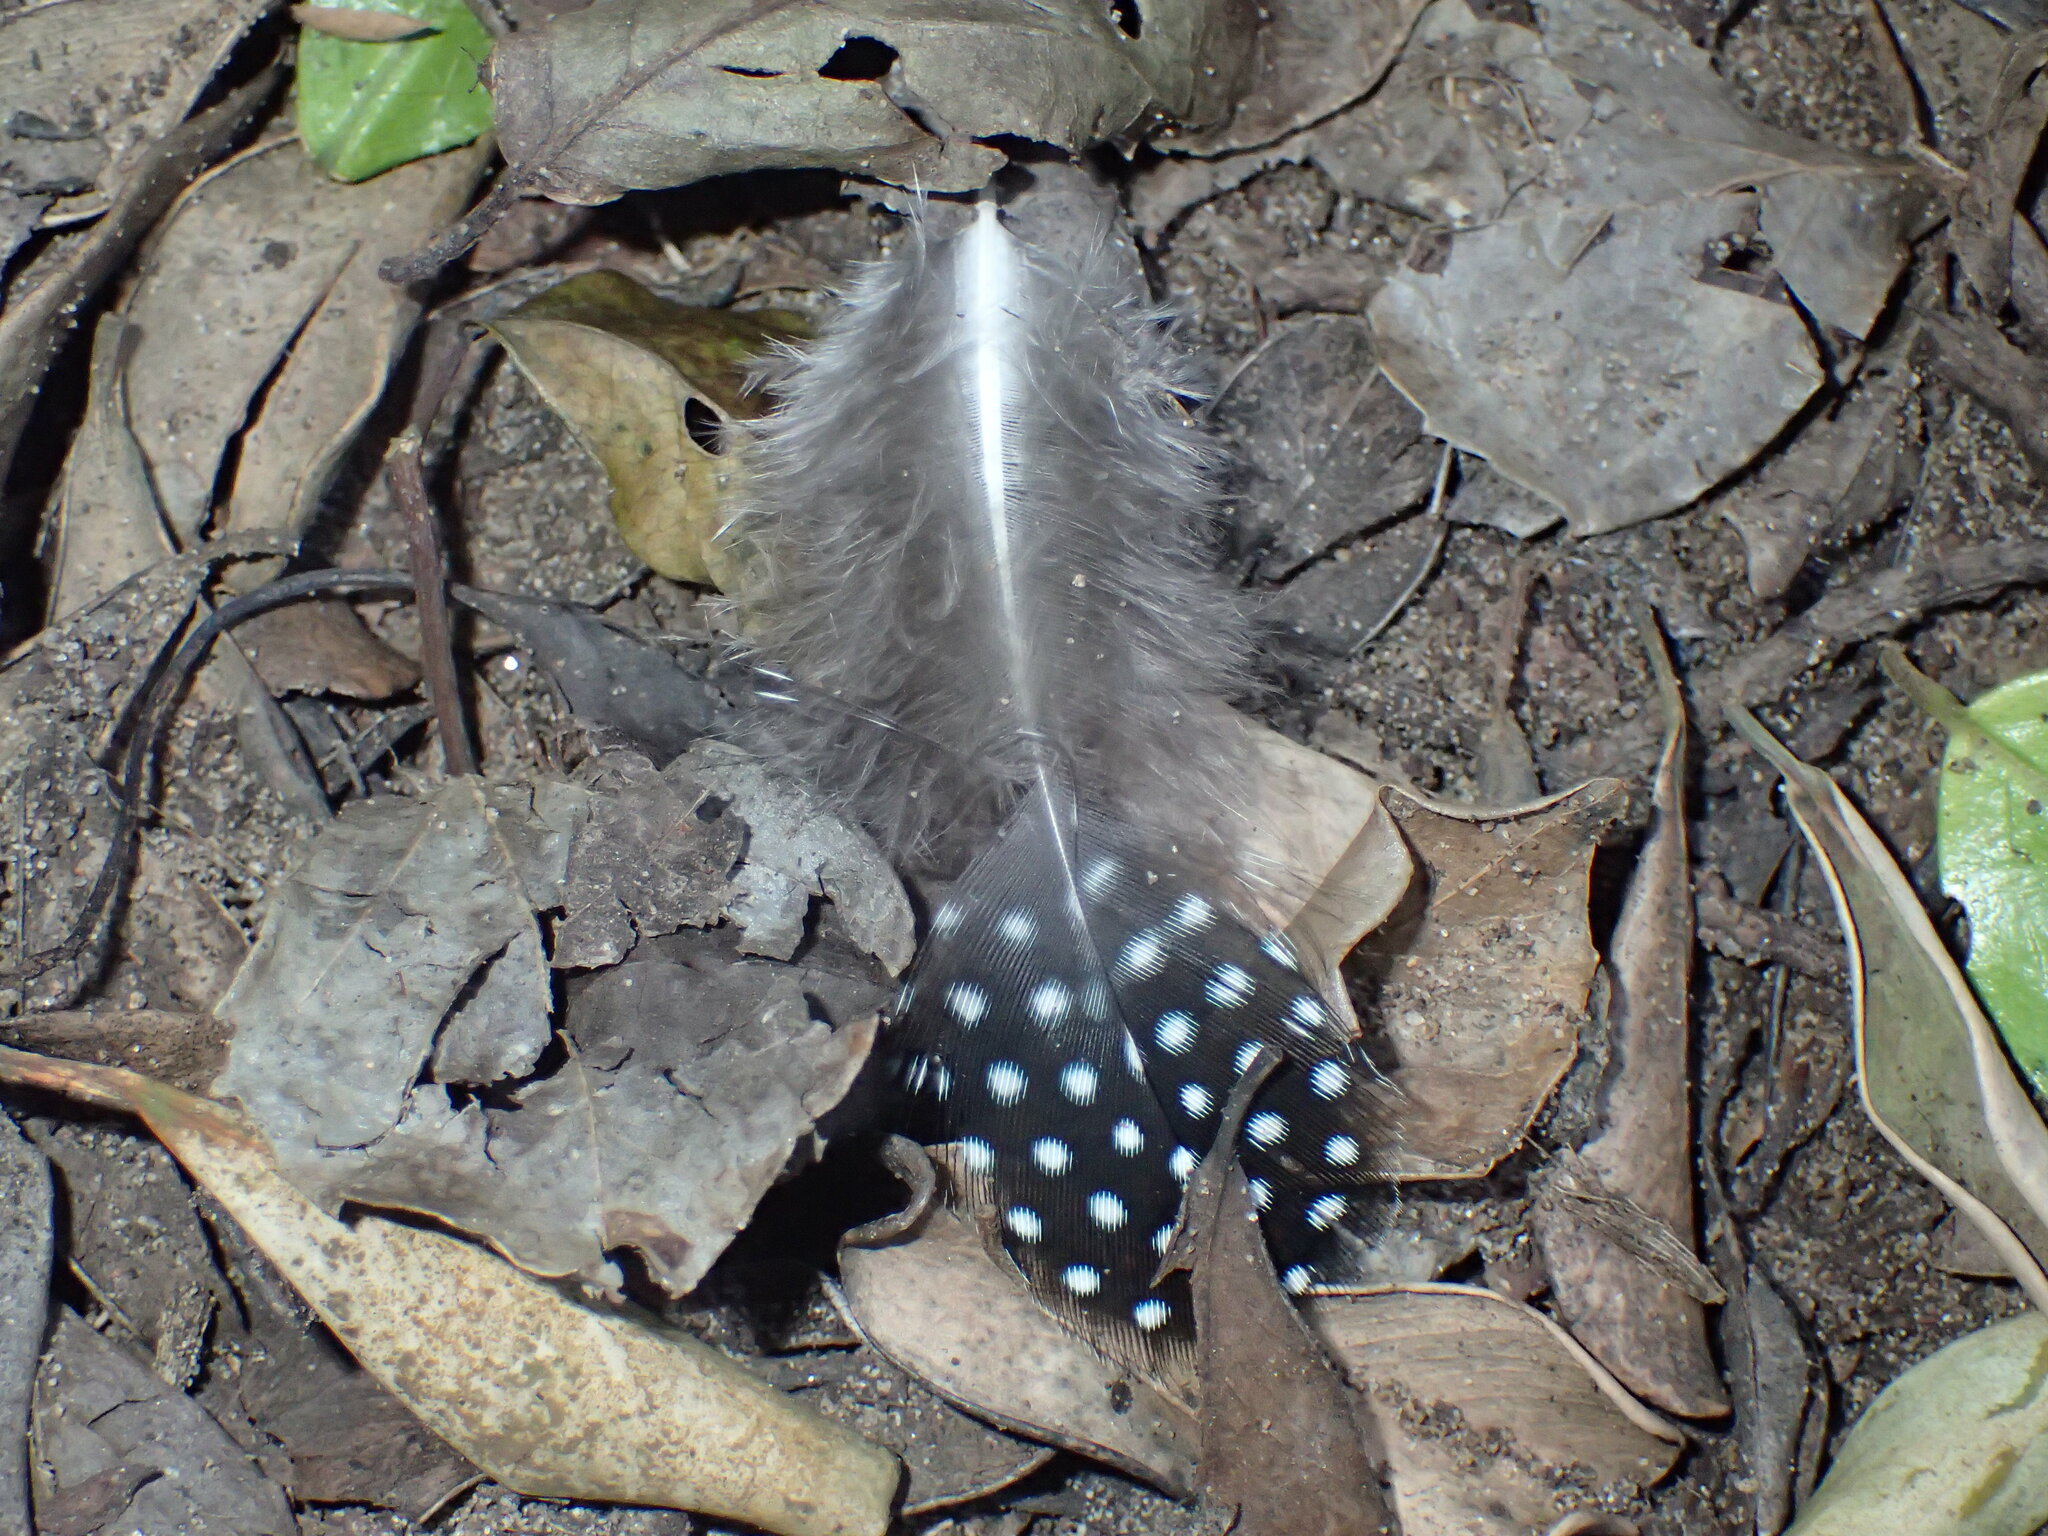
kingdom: Animalia
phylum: Chordata
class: Aves
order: Galliformes
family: Numididae
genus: Guttera
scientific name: Guttera pucherani
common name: Crested guineafowl
